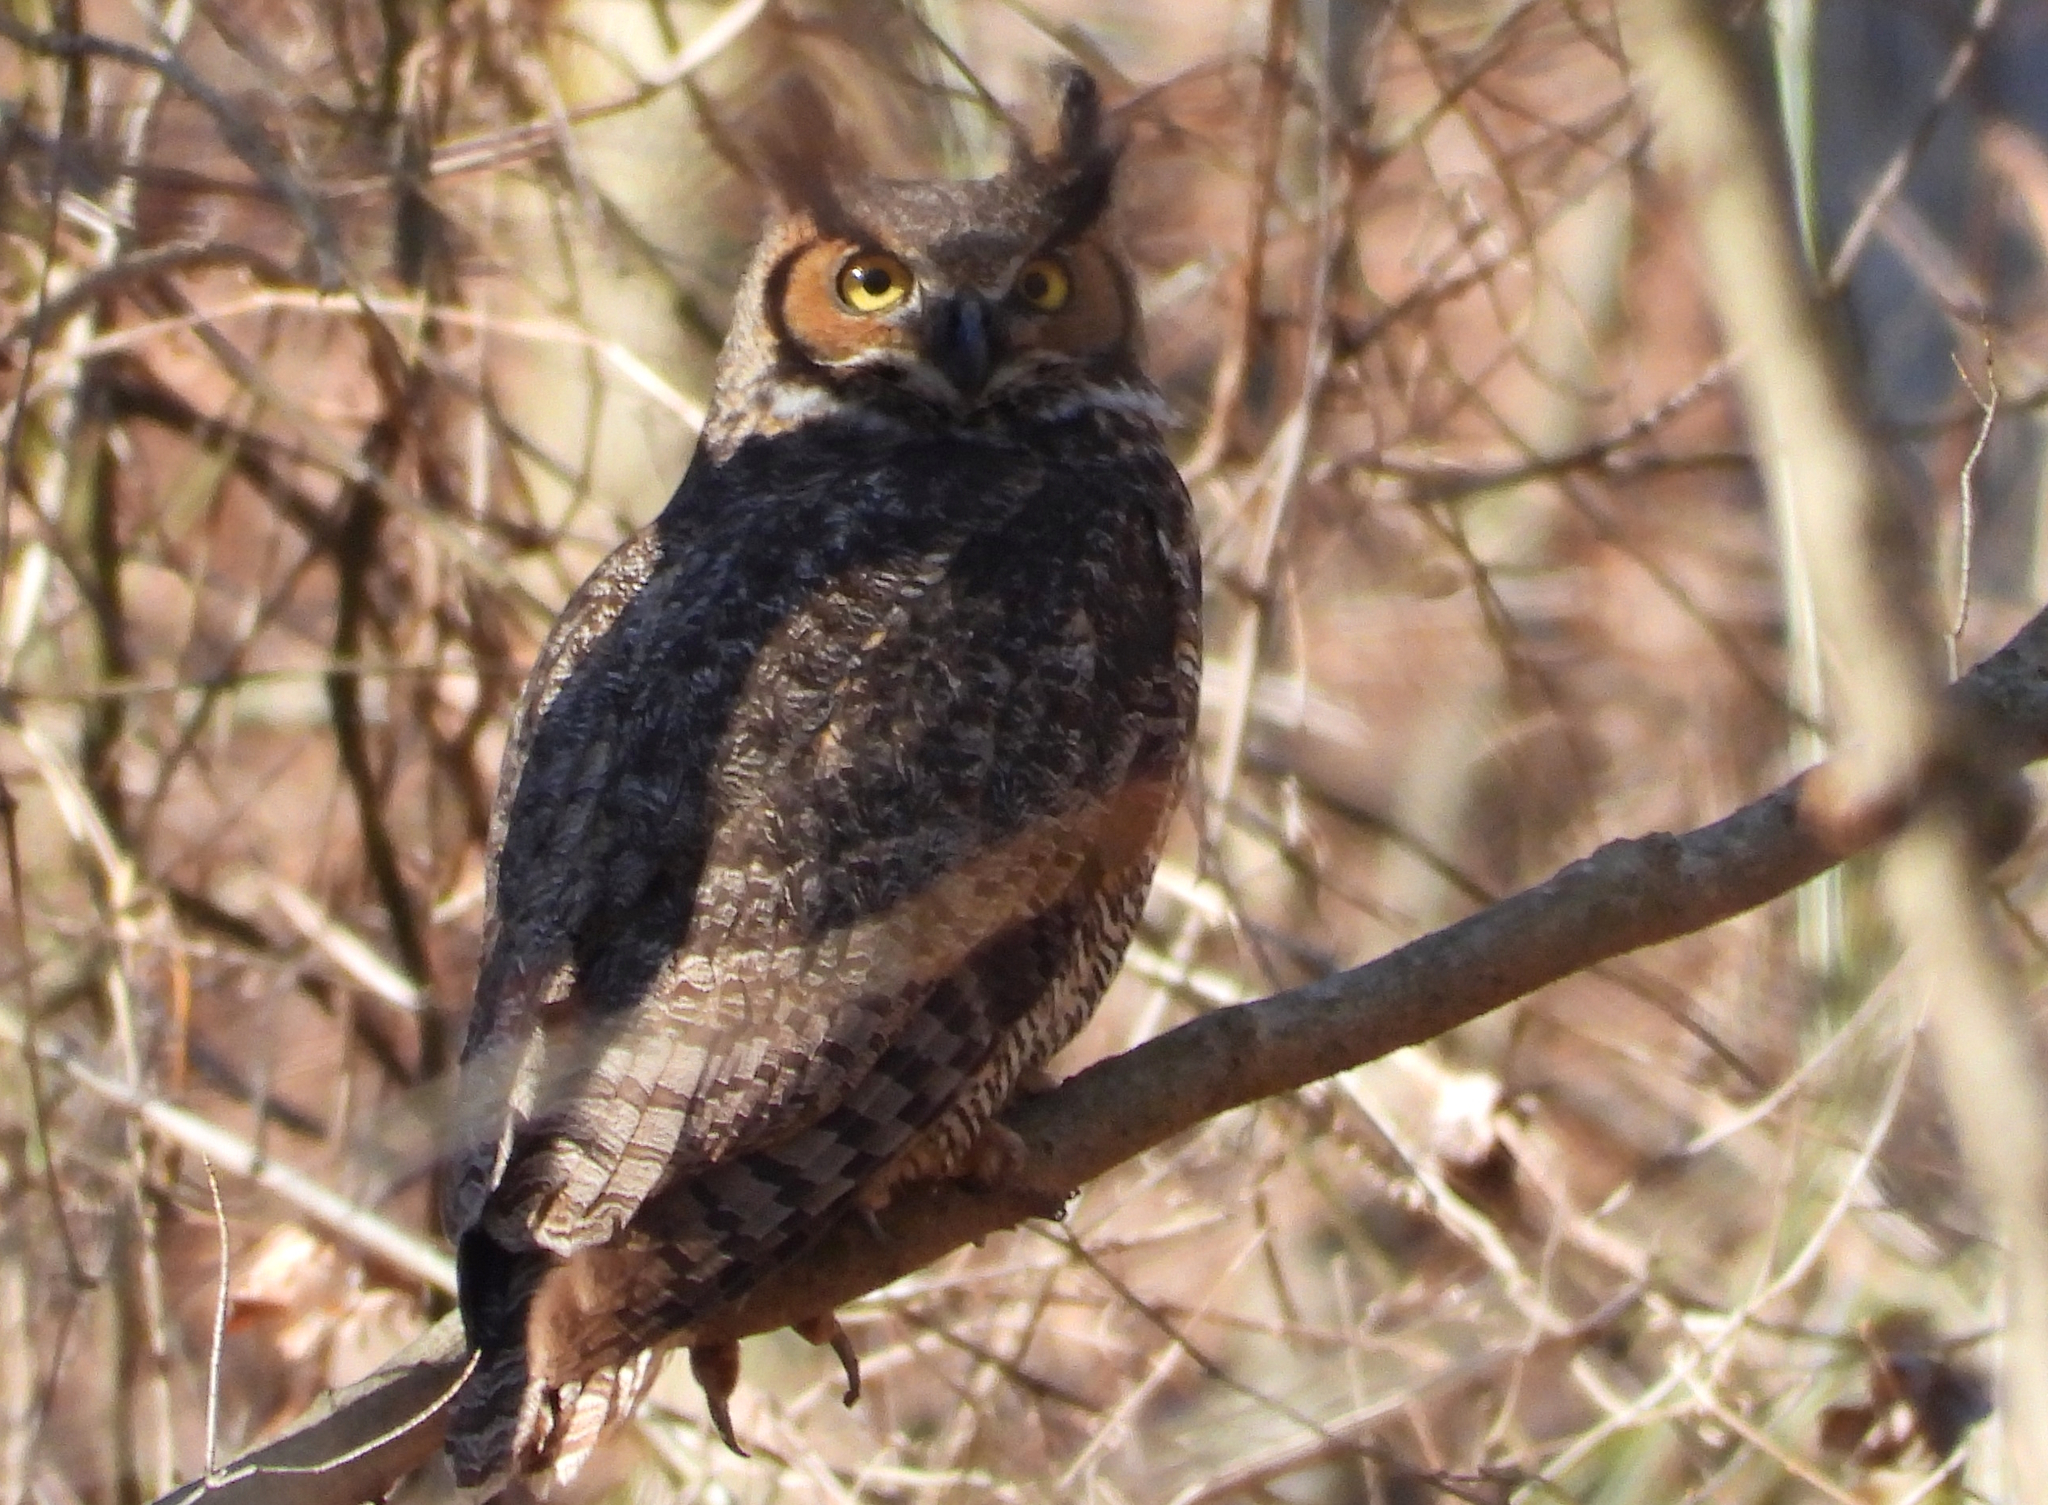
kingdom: Animalia
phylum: Chordata
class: Aves
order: Strigiformes
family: Strigidae
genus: Bubo
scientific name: Bubo virginianus
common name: Great horned owl
